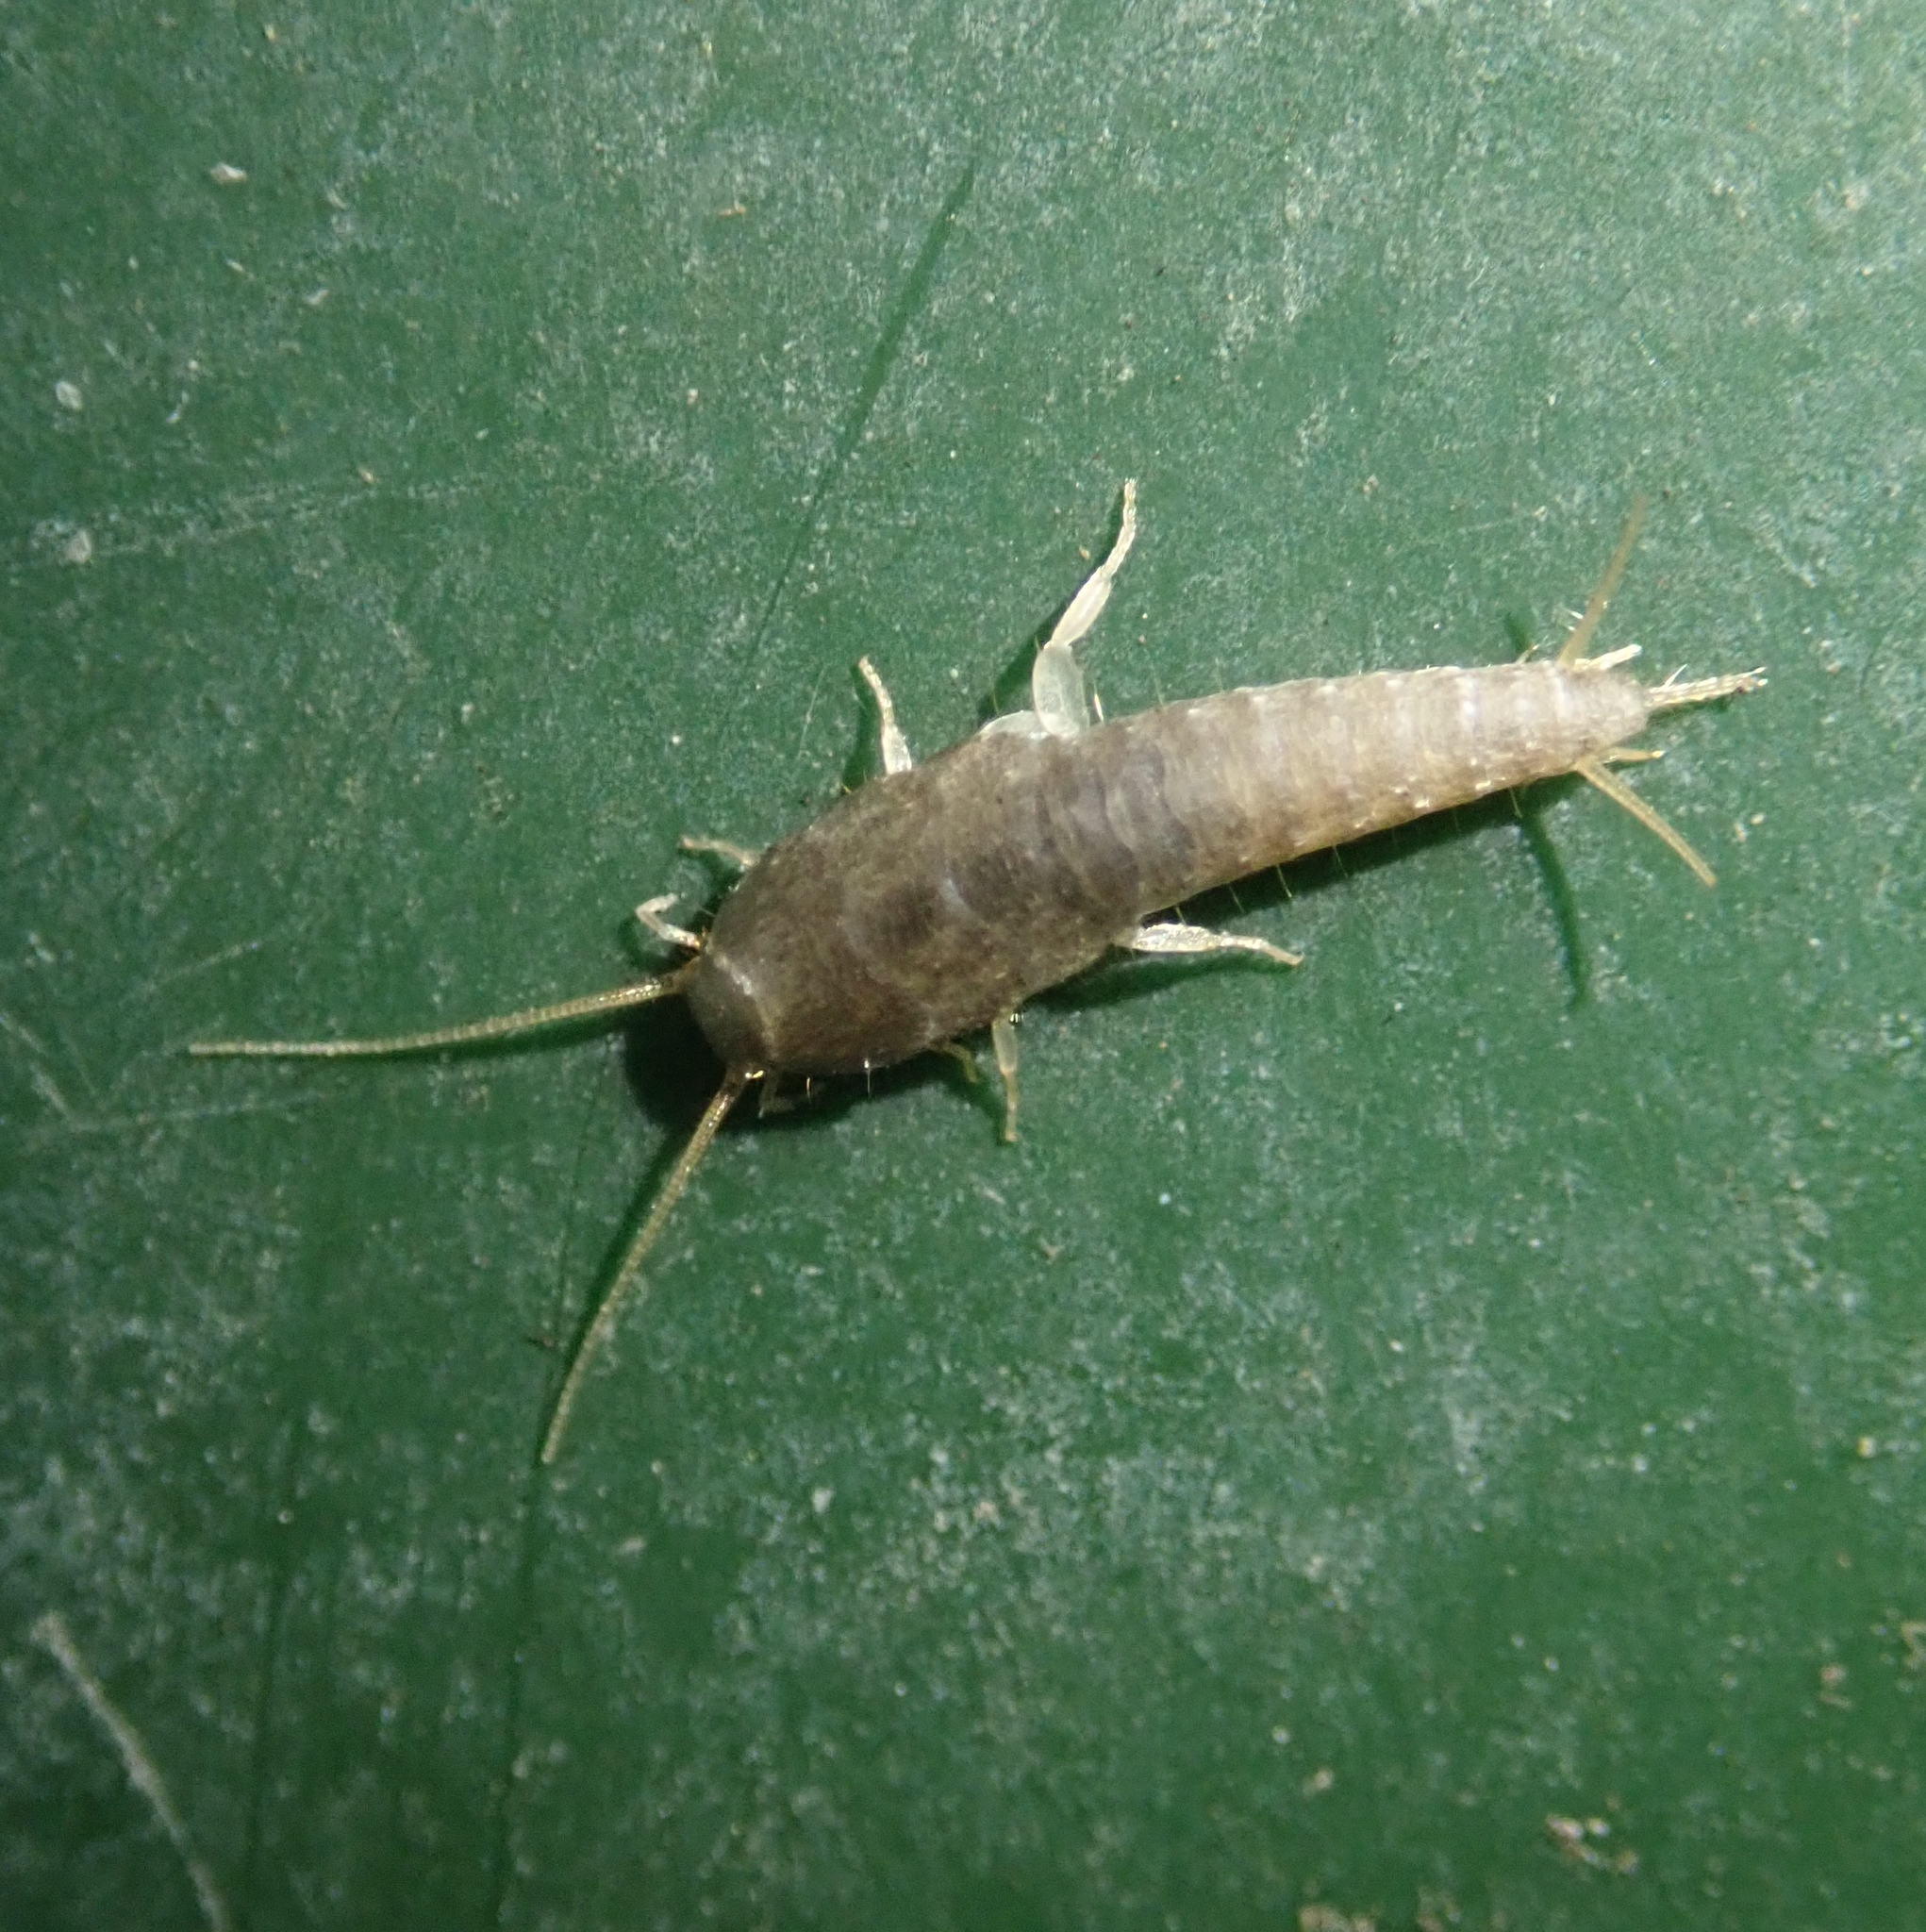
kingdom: Animalia
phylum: Arthropoda
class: Insecta
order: Zygentoma
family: Lepismatidae
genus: Lepisma
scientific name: Lepisma saccharinum
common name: Silverfish
